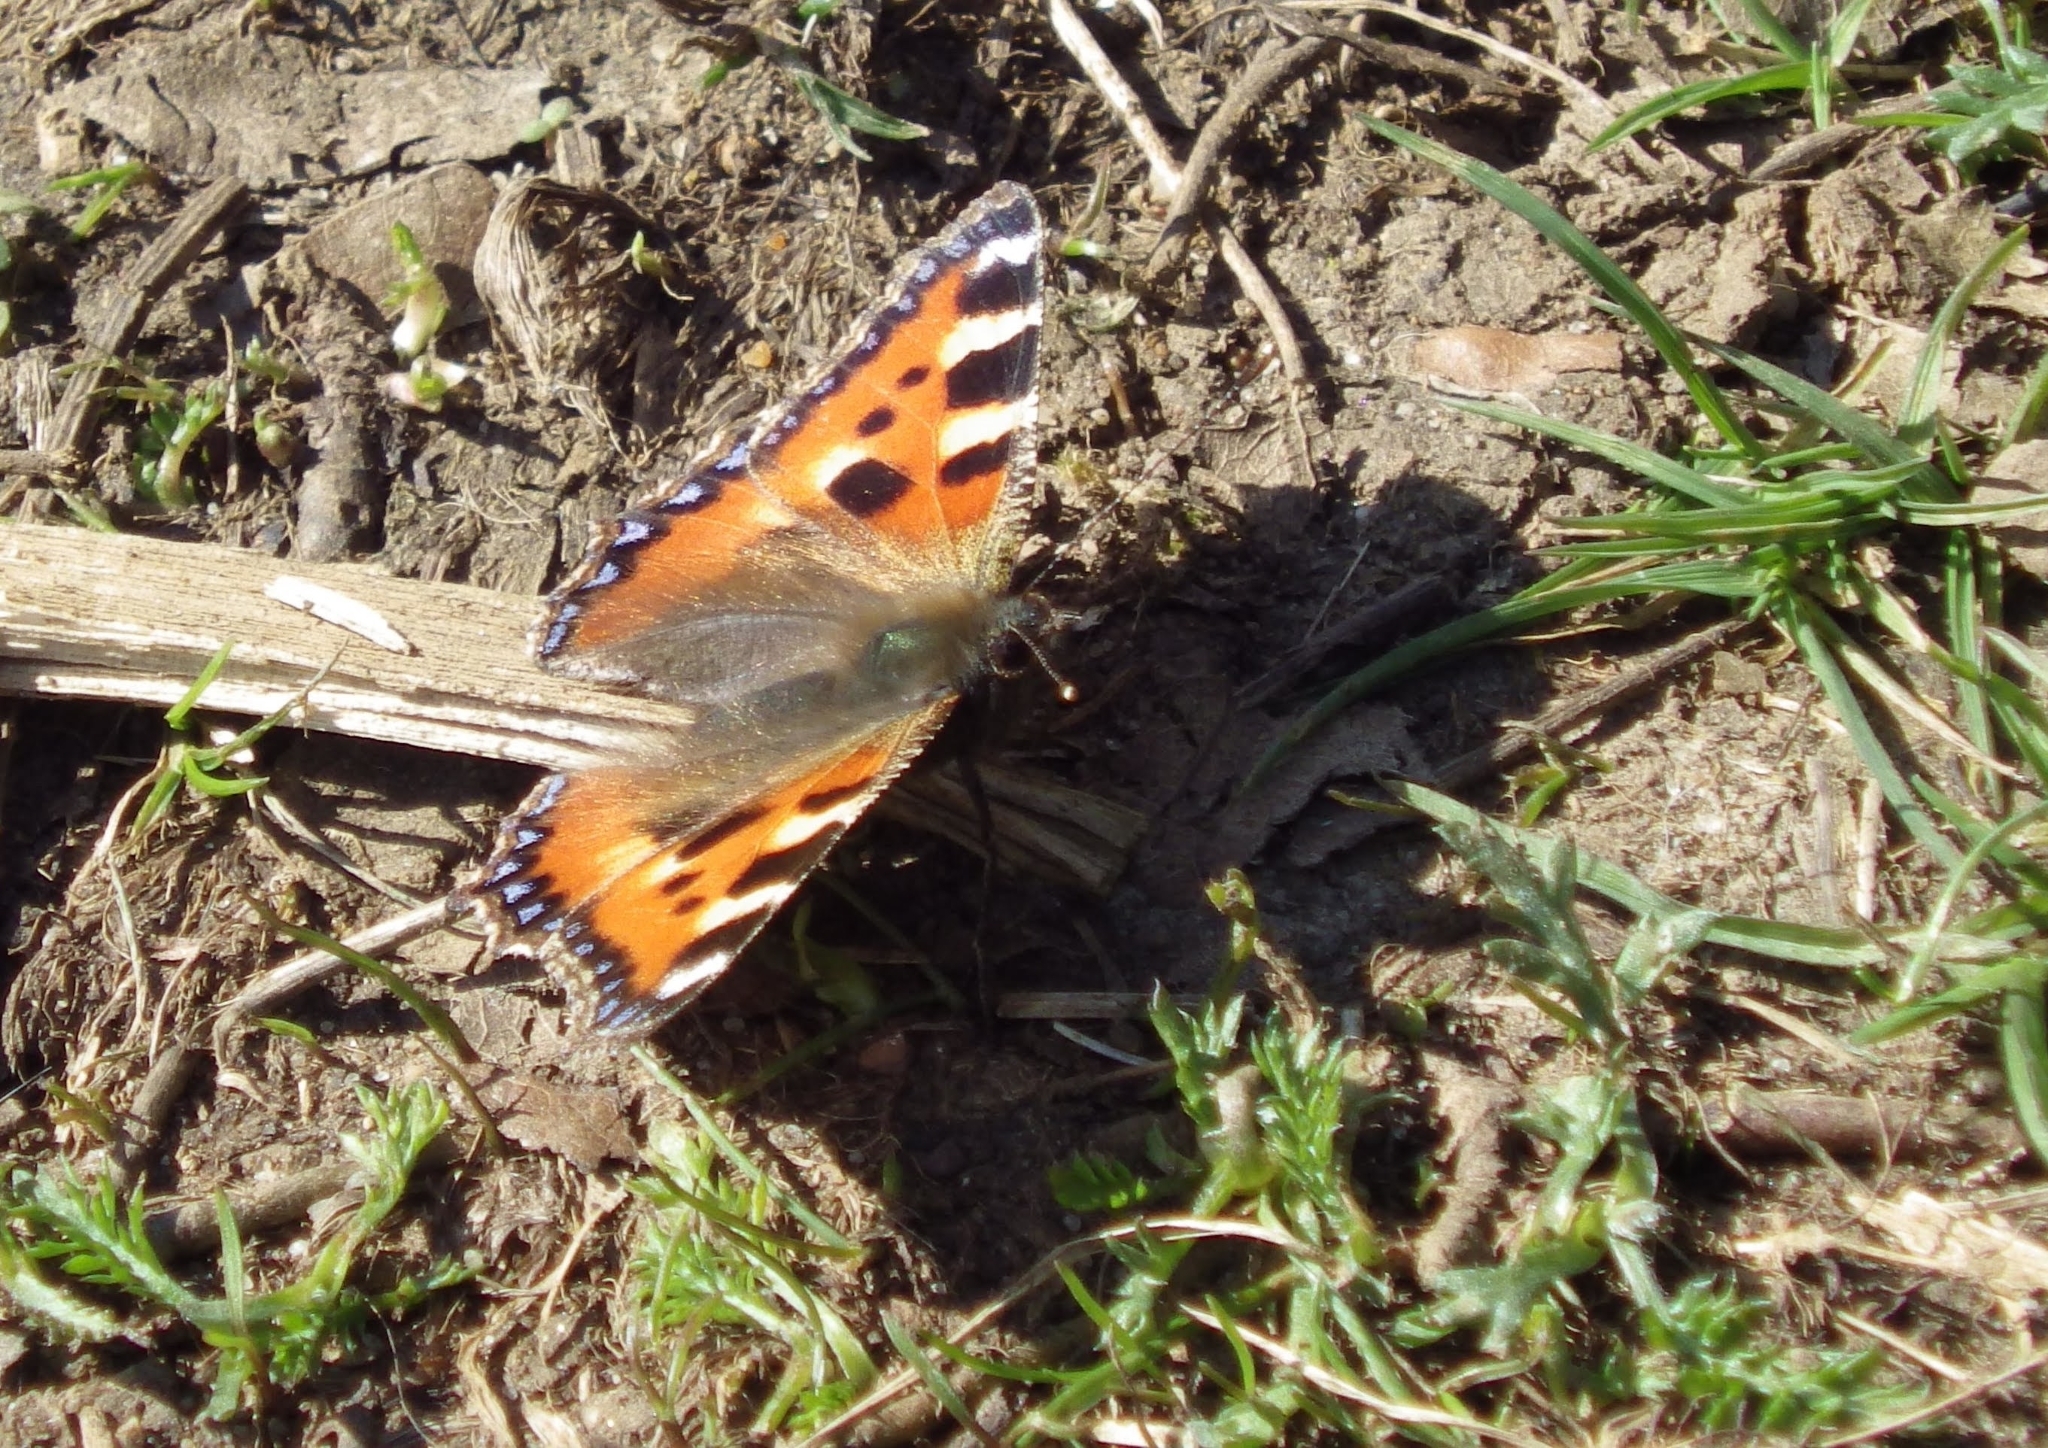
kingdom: Animalia
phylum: Arthropoda
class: Insecta
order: Lepidoptera
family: Nymphalidae
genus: Aglais
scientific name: Aglais urticae
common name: Small tortoiseshell
